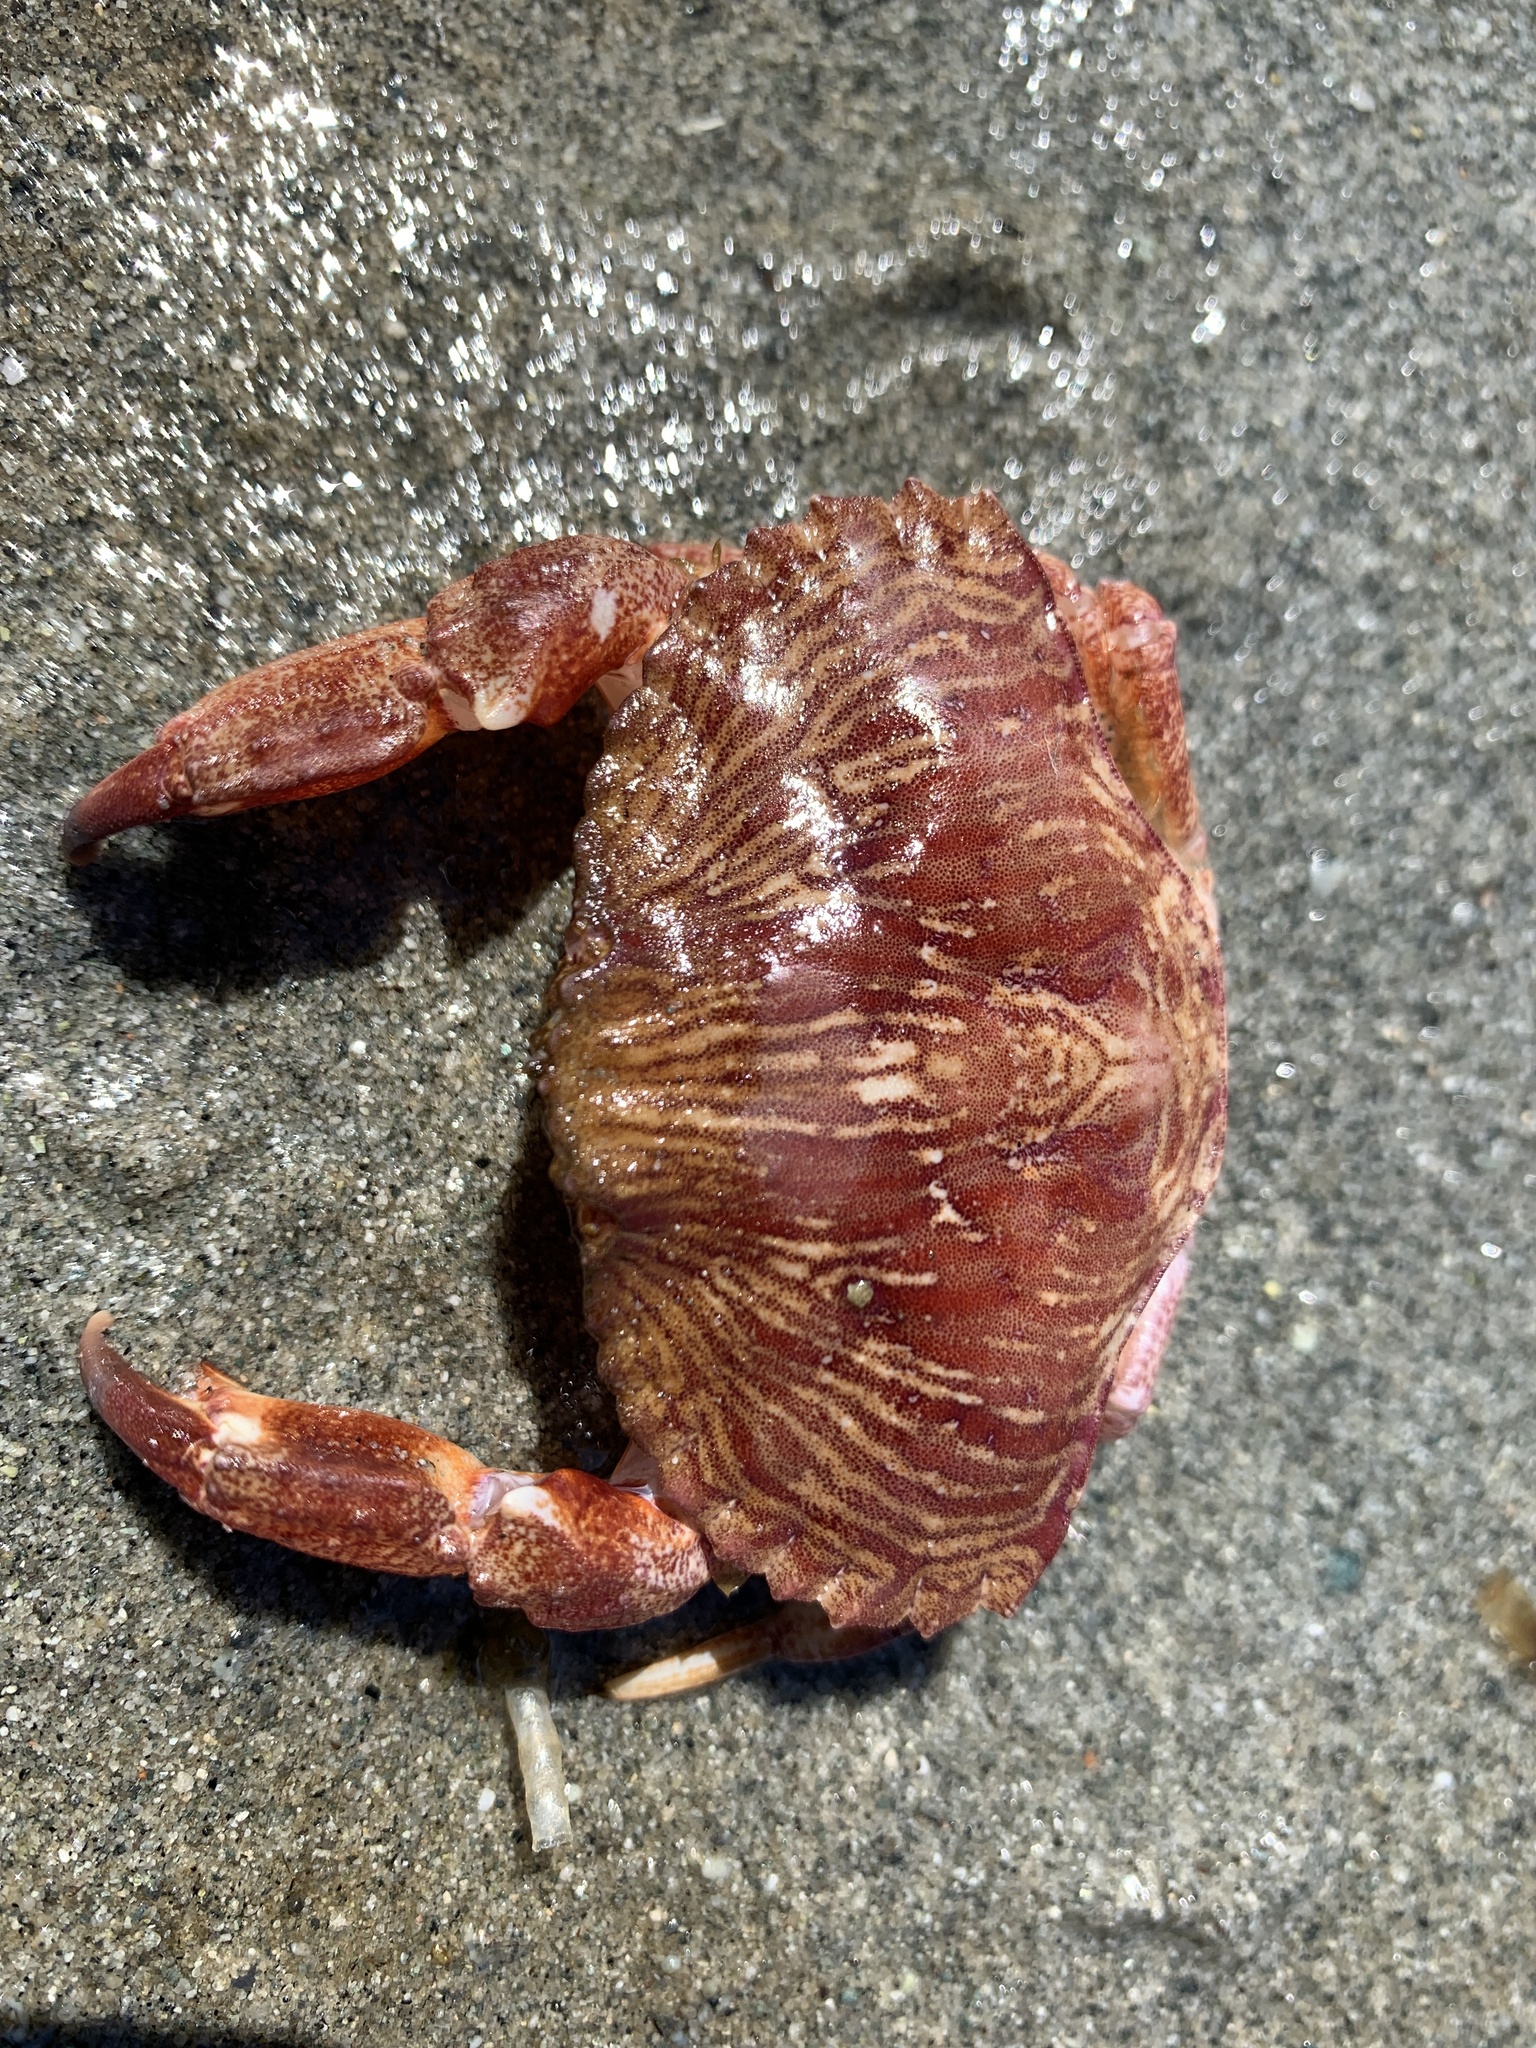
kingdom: Animalia
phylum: Arthropoda
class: Malacostraca
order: Decapoda
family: Cancridae
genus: Cancer
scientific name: Cancer productus
